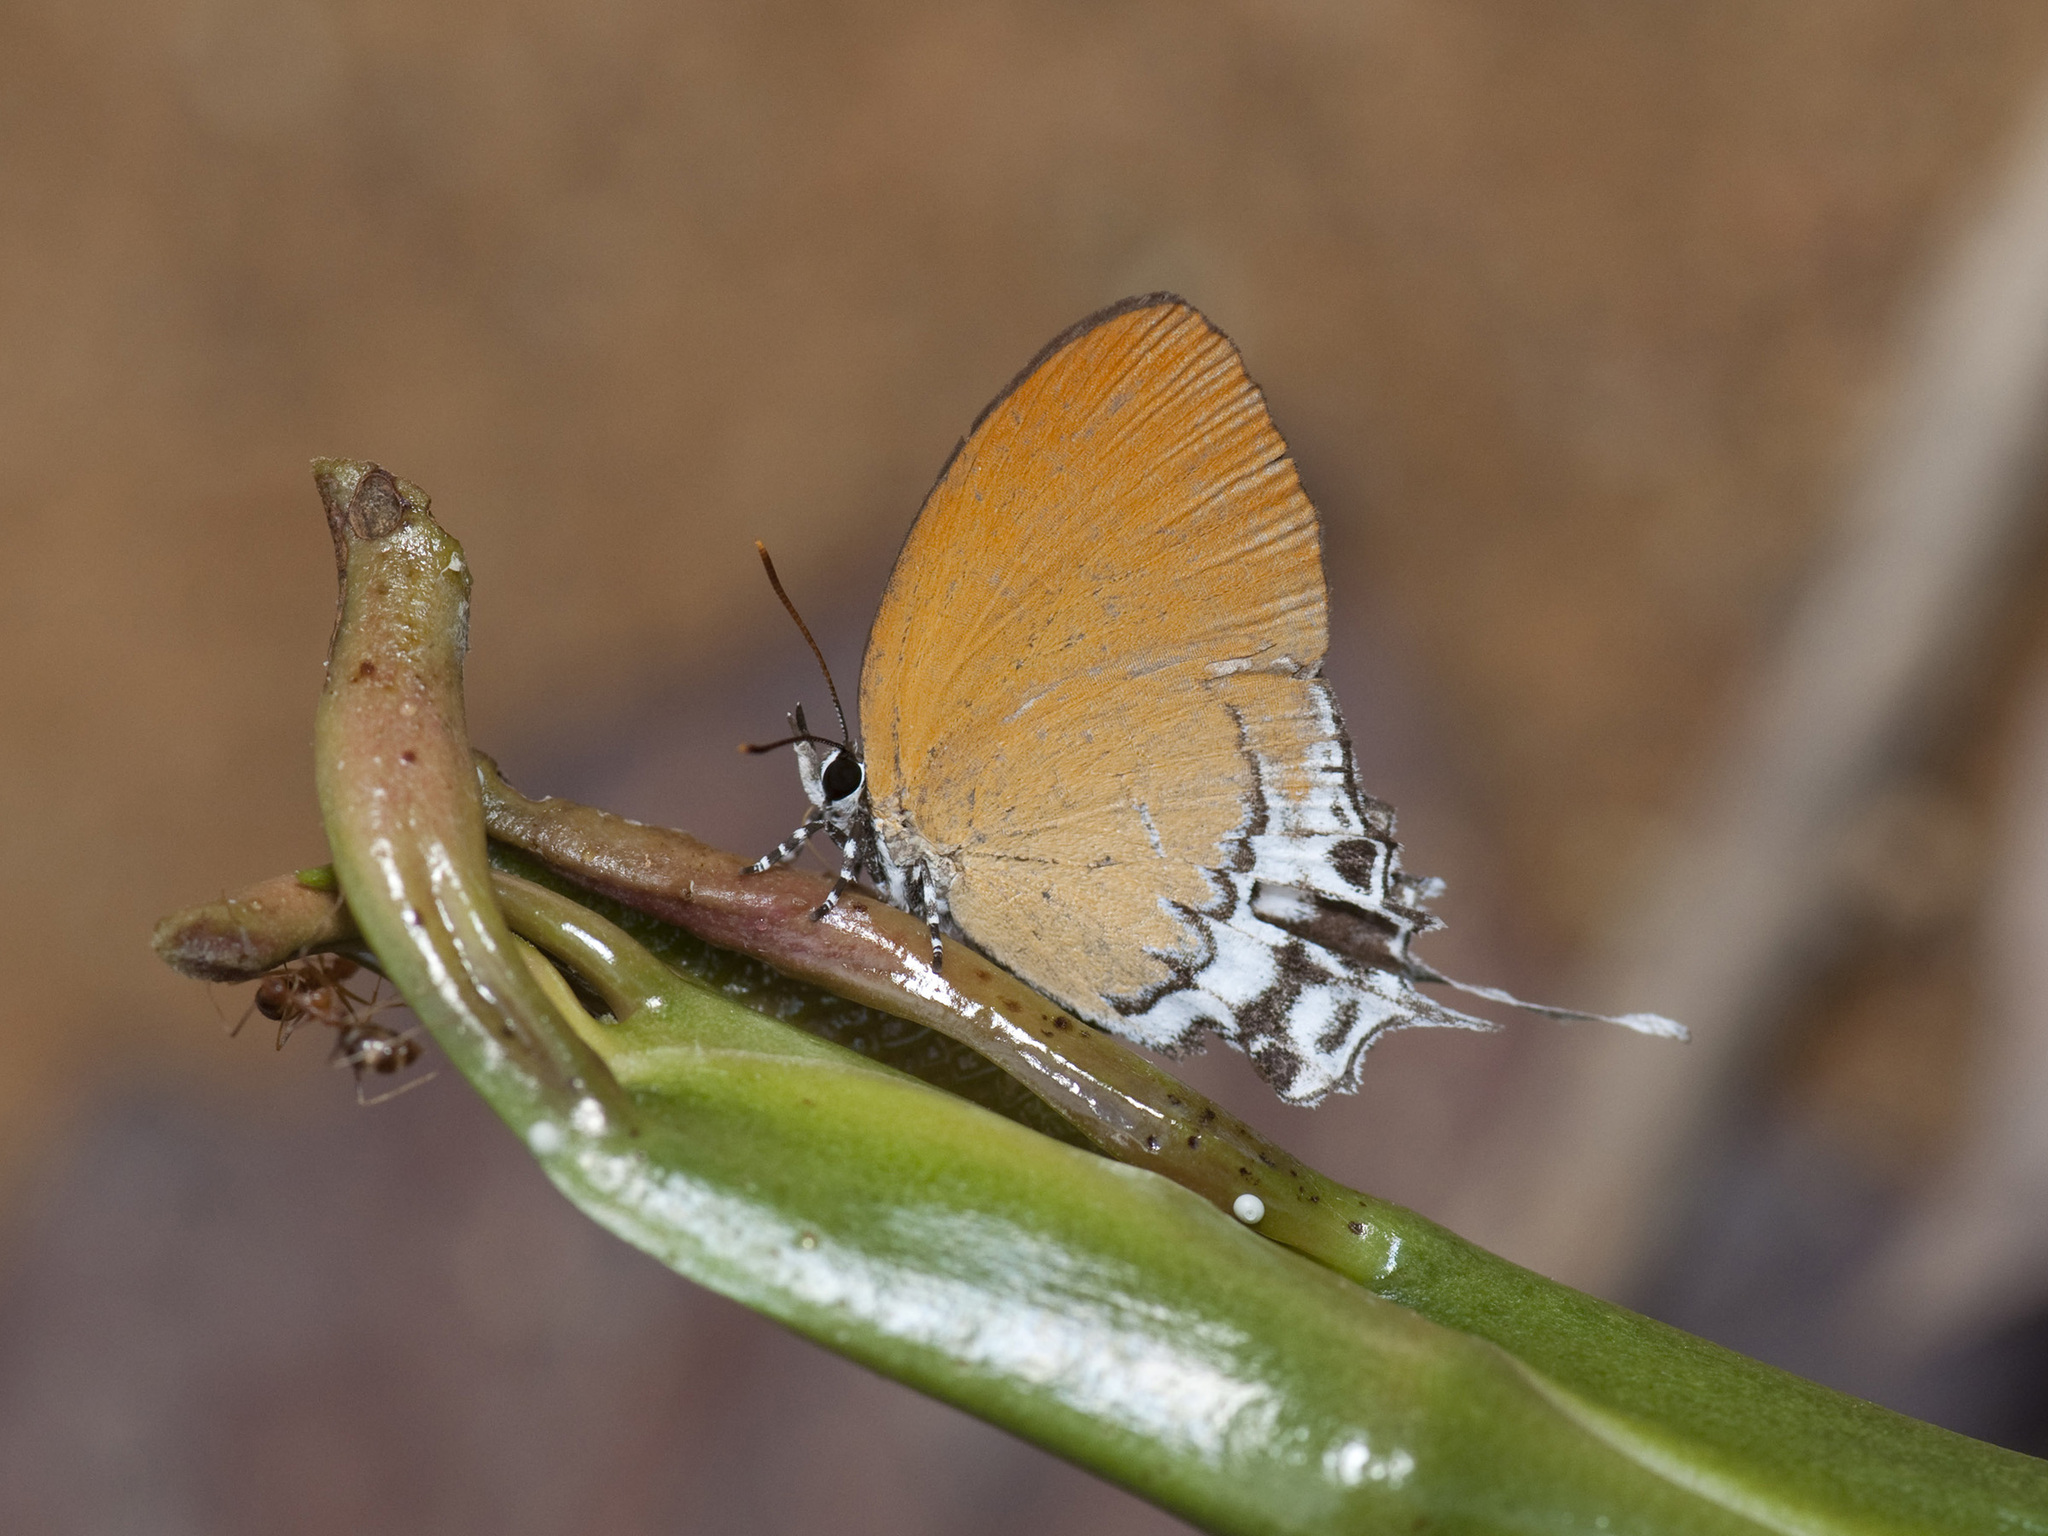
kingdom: Animalia
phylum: Arthropoda
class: Insecta
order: Lepidoptera
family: Lycaenidae
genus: Eooxylides
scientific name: Eooxylides tharis
